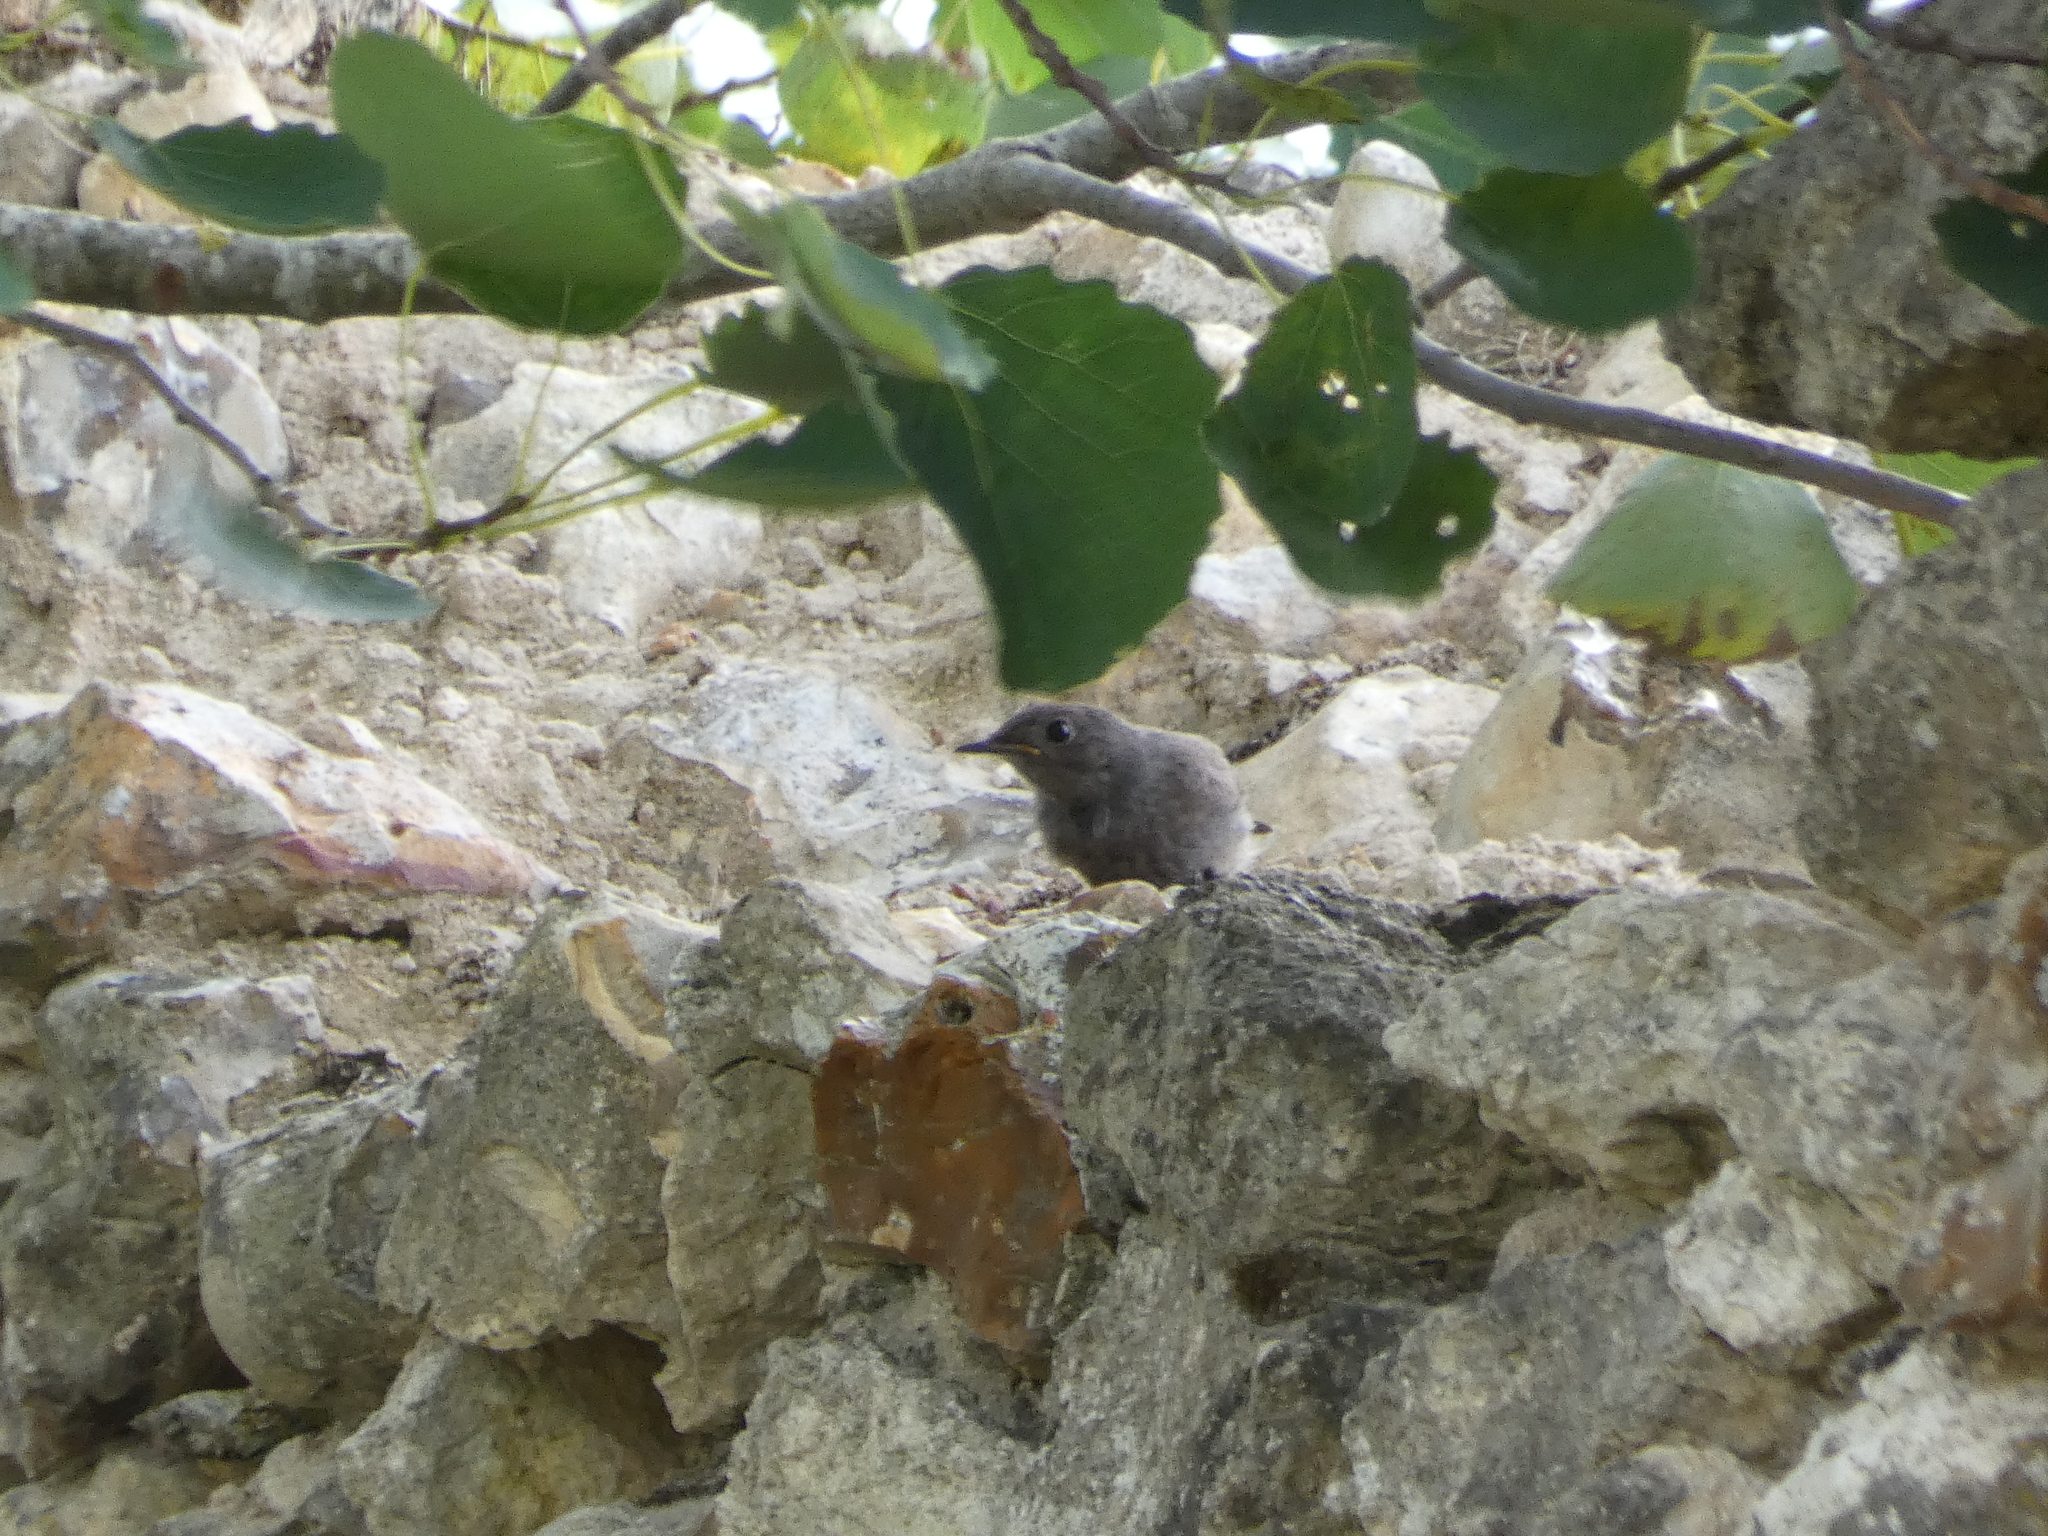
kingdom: Animalia
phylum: Chordata
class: Aves
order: Passeriformes
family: Muscicapidae
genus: Phoenicurus
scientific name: Phoenicurus ochruros
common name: Black redstart
